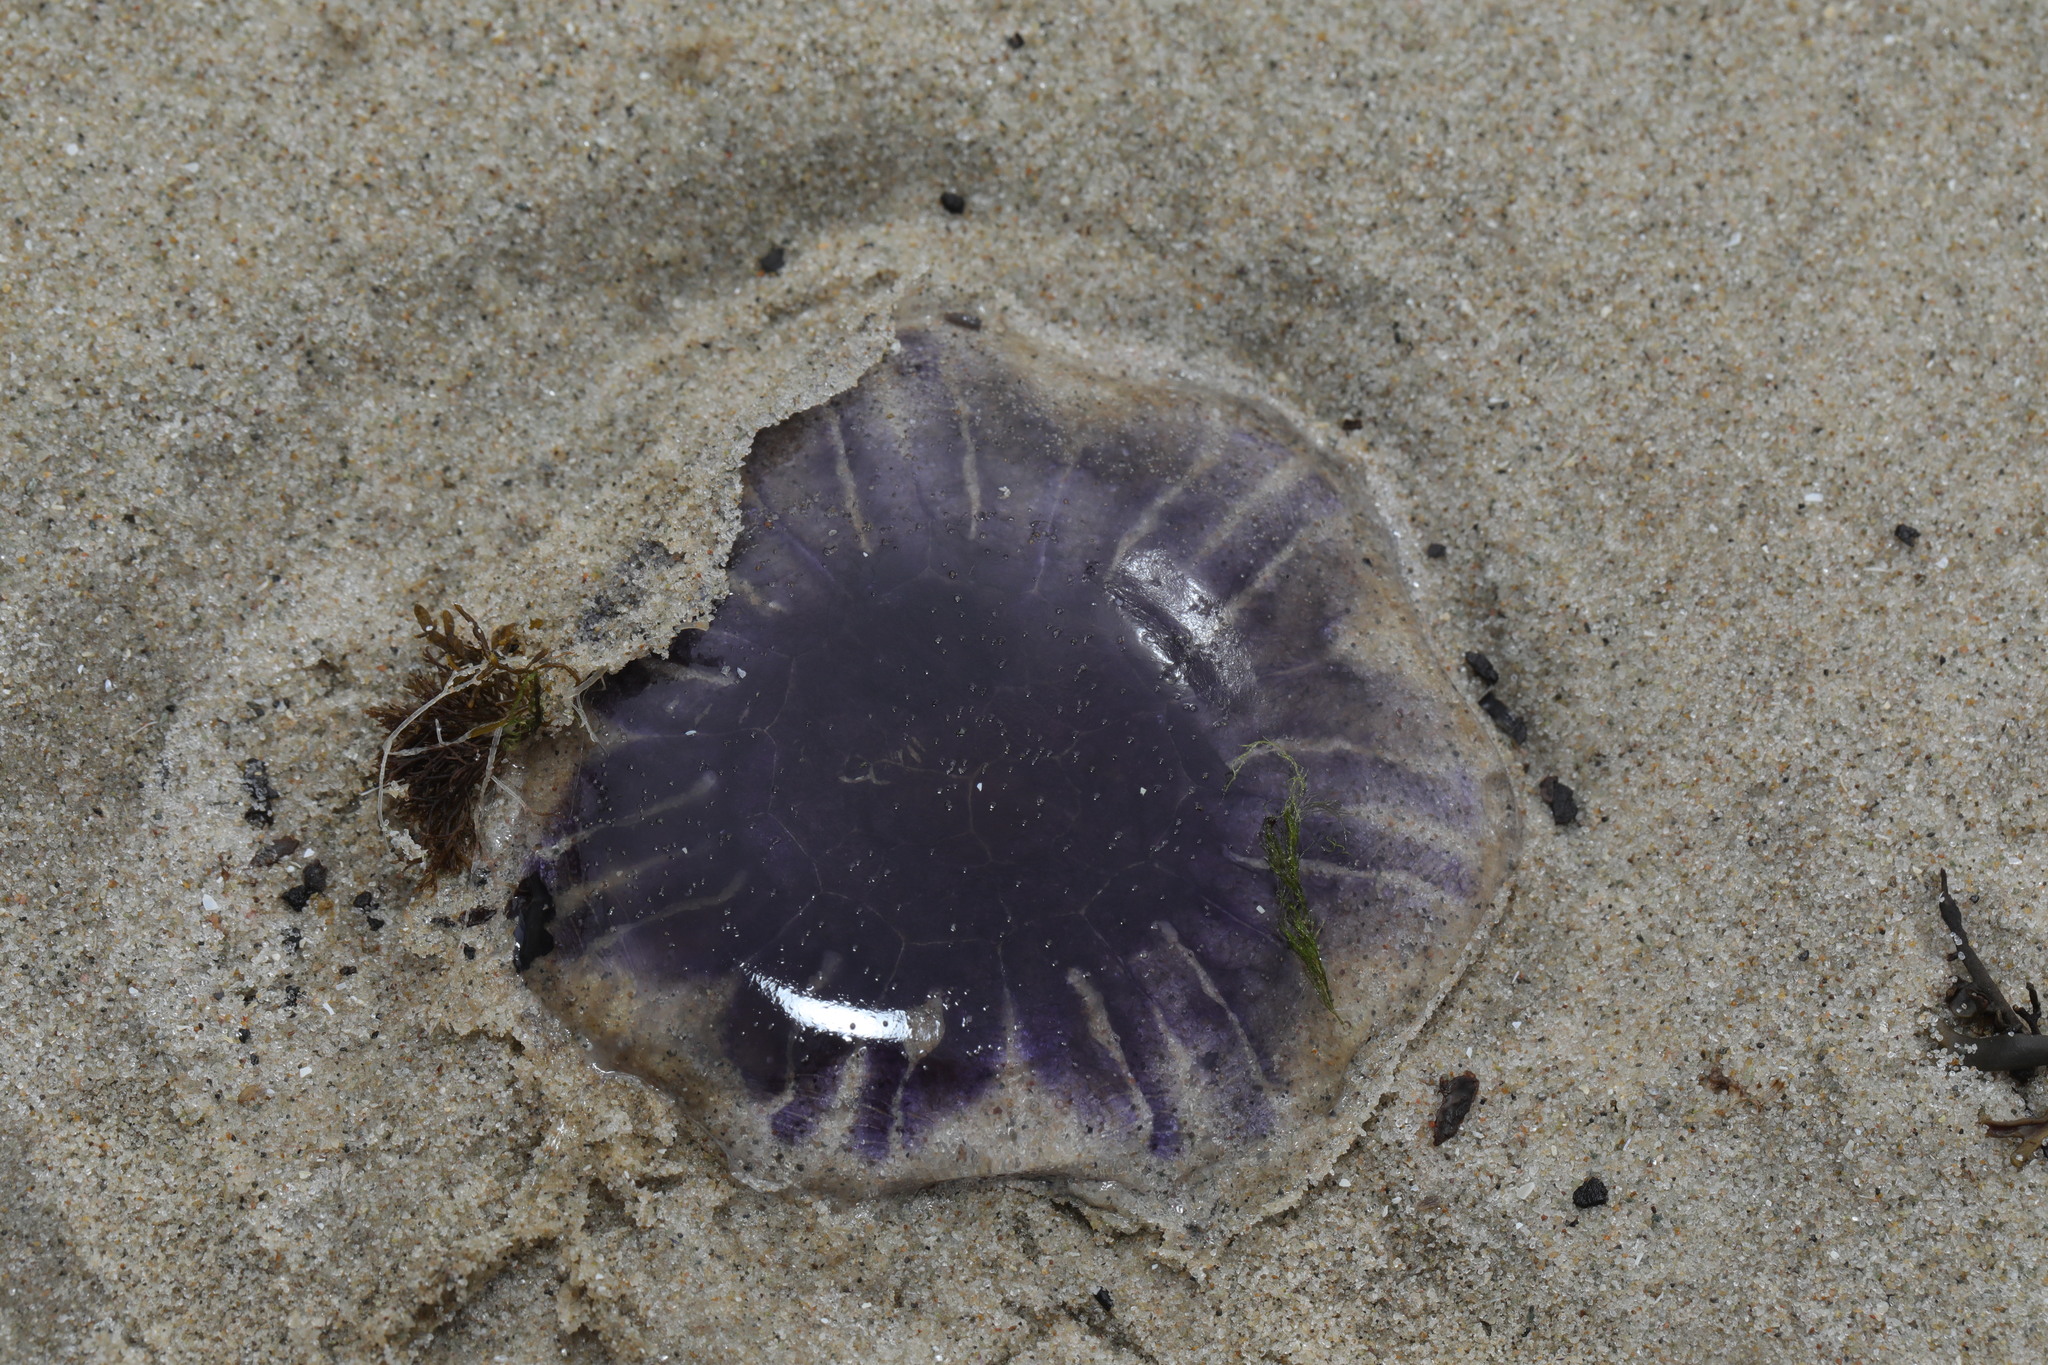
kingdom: Animalia
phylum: Cnidaria
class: Scyphozoa
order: Semaeostomeae
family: Cyaneidae
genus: Cyanea
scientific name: Cyanea lamarckii
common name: Blue jellyfish
